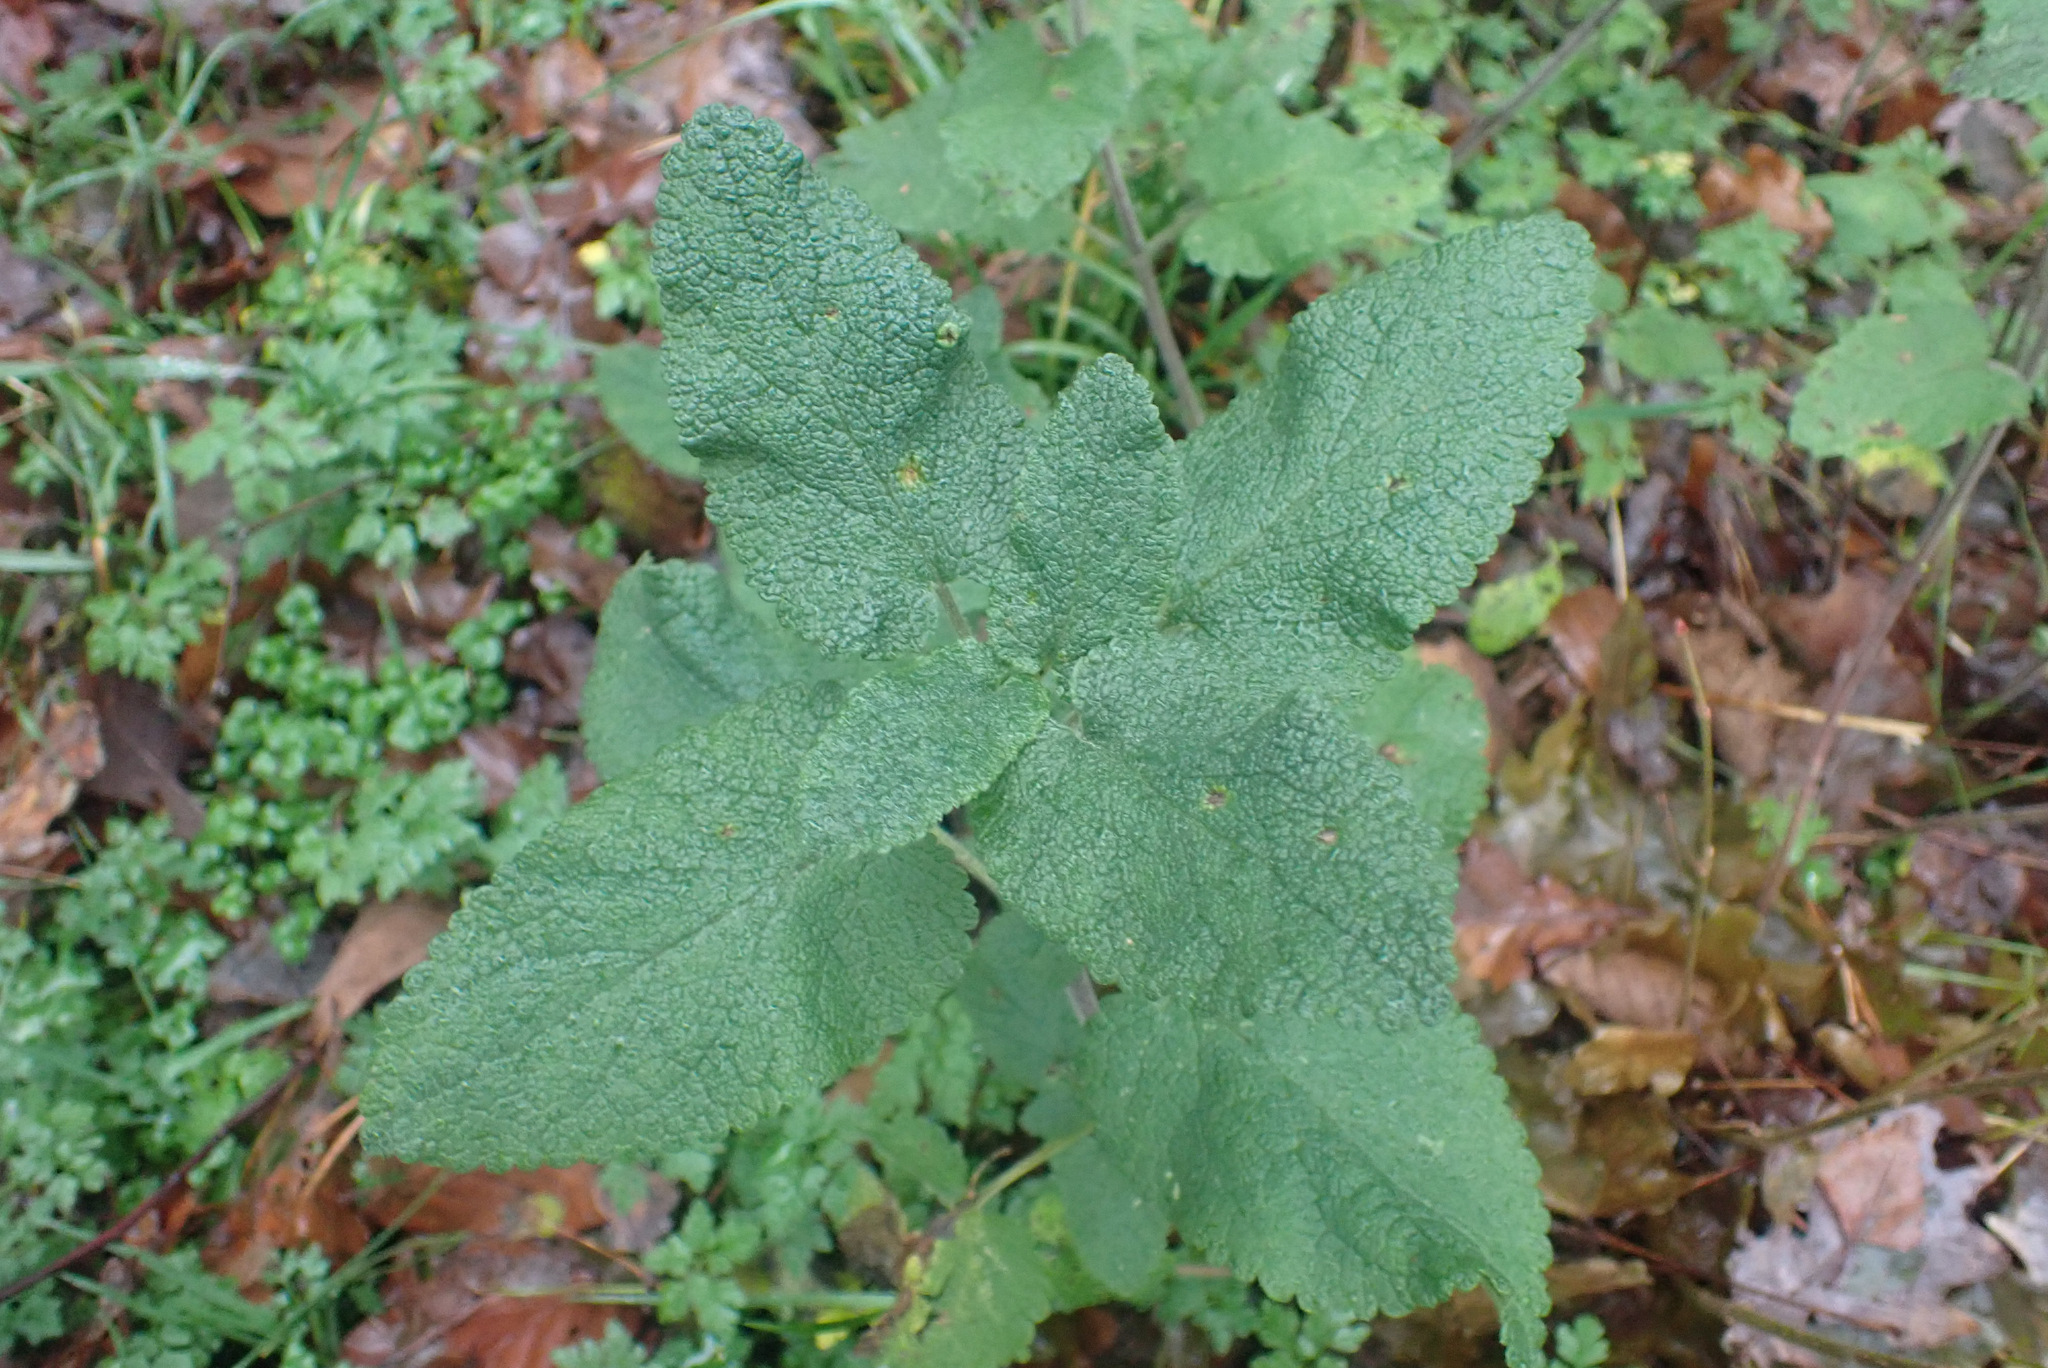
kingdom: Plantae
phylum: Tracheophyta
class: Magnoliopsida
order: Lamiales
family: Lamiaceae
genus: Teucrium
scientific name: Teucrium scorodonia
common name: Woodland germander
